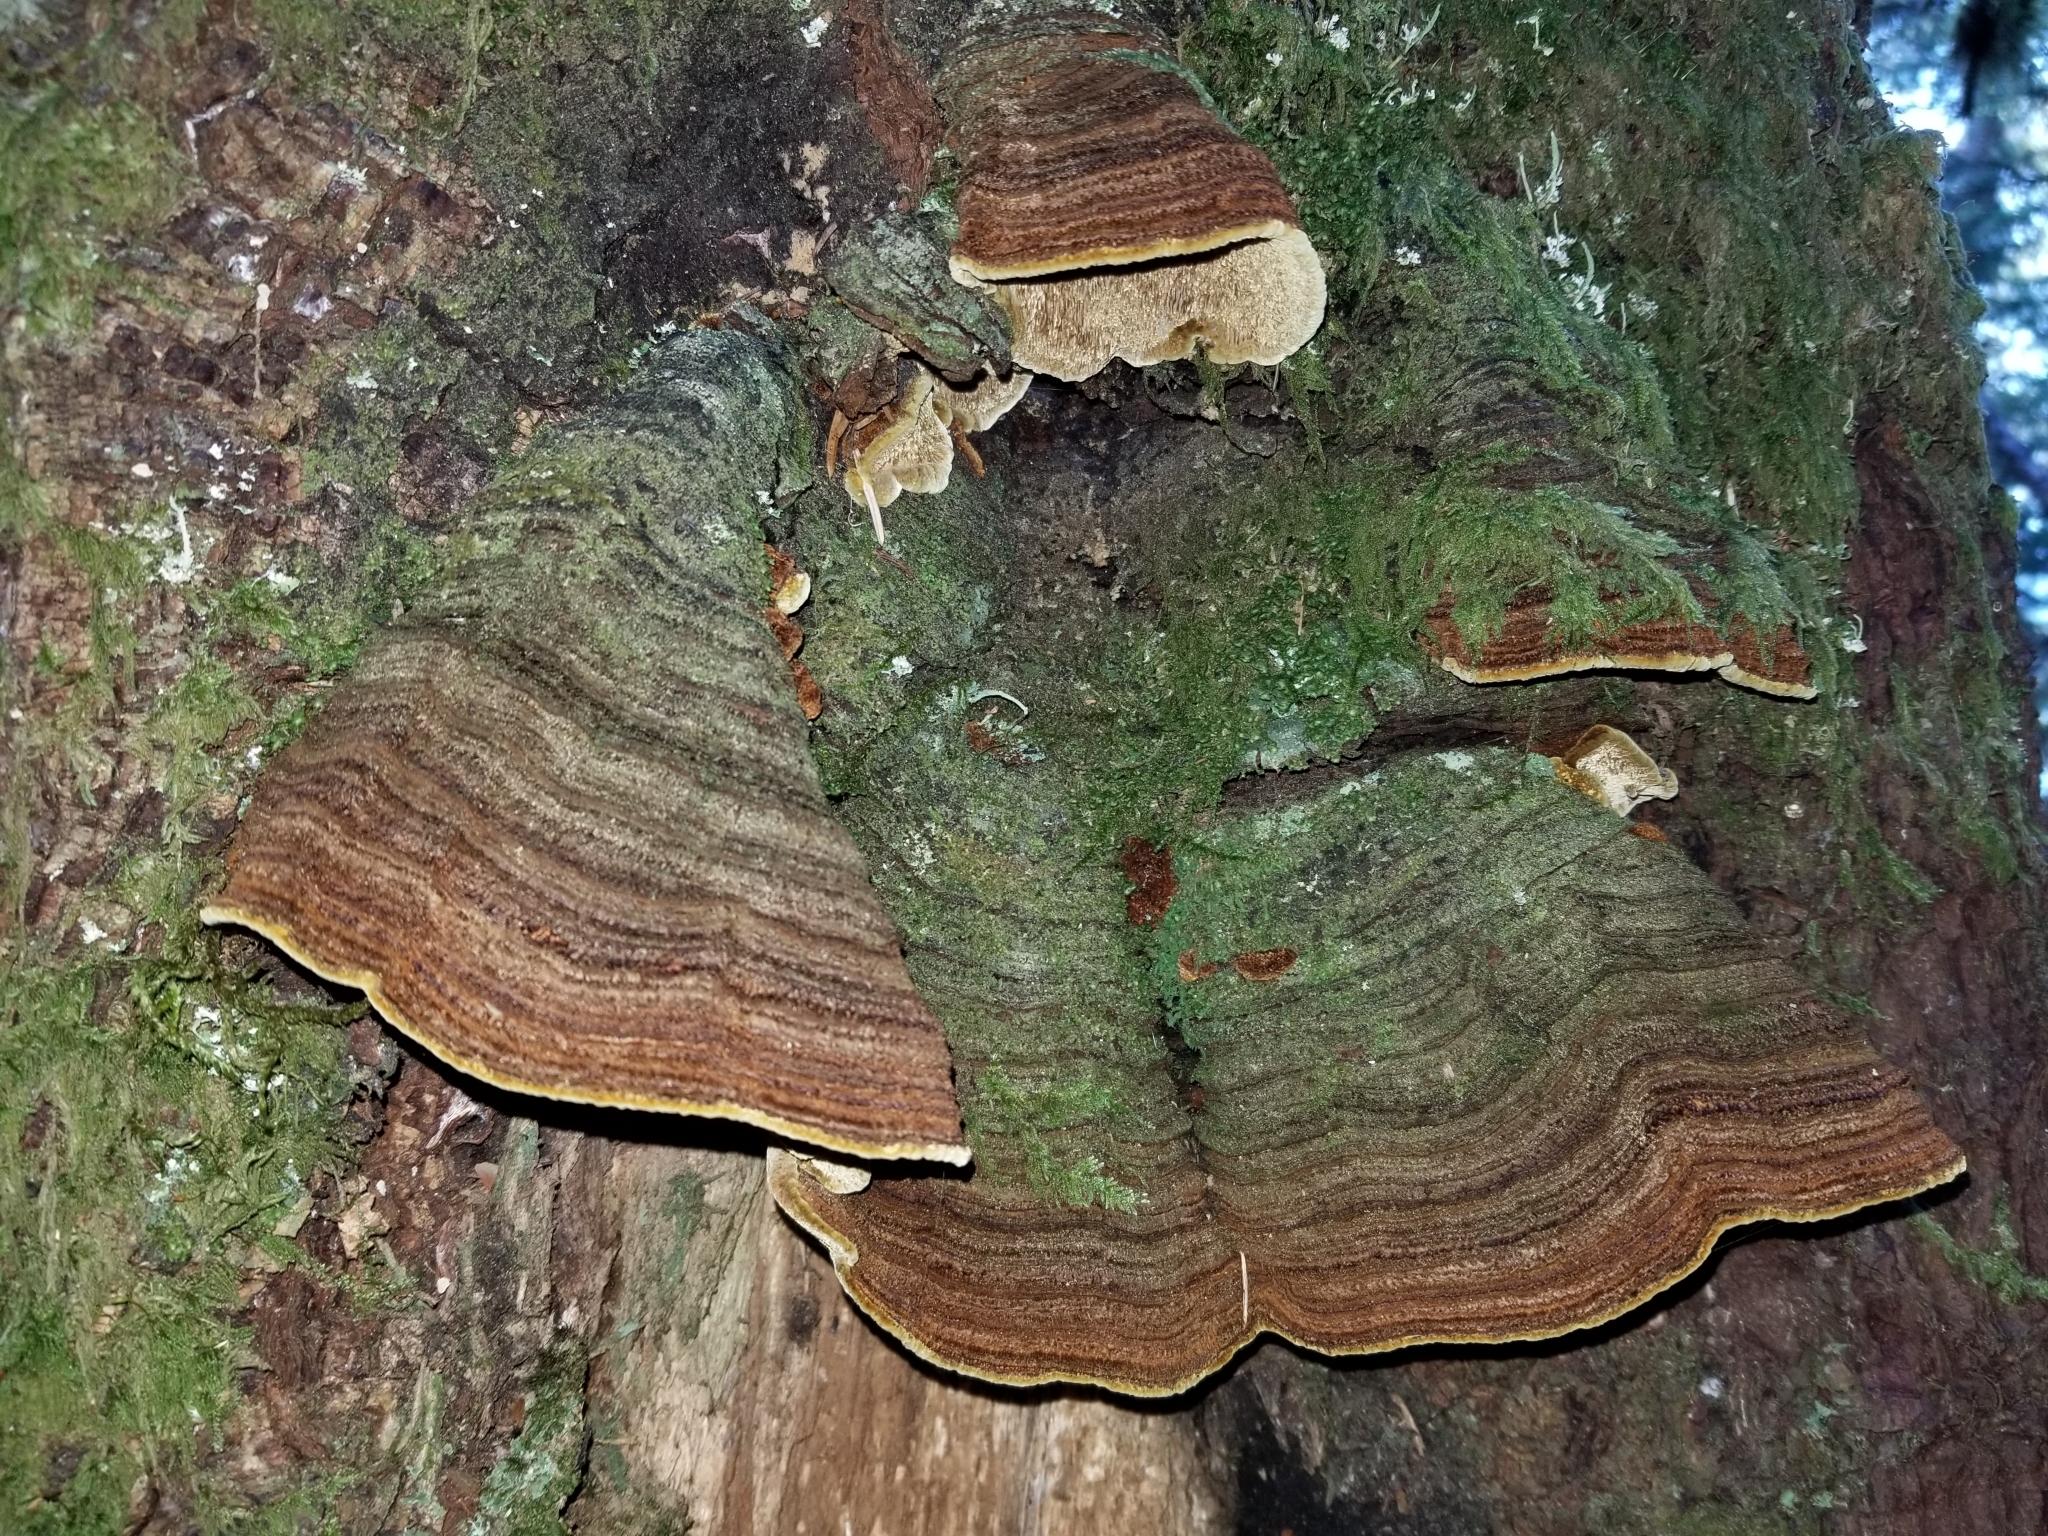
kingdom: Fungi
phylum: Basidiomycota
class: Agaricomycetes
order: Hymenochaetales
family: Hymenochaetaceae
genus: Porodaedalea
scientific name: Porodaedalea pini
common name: Pine bracket
